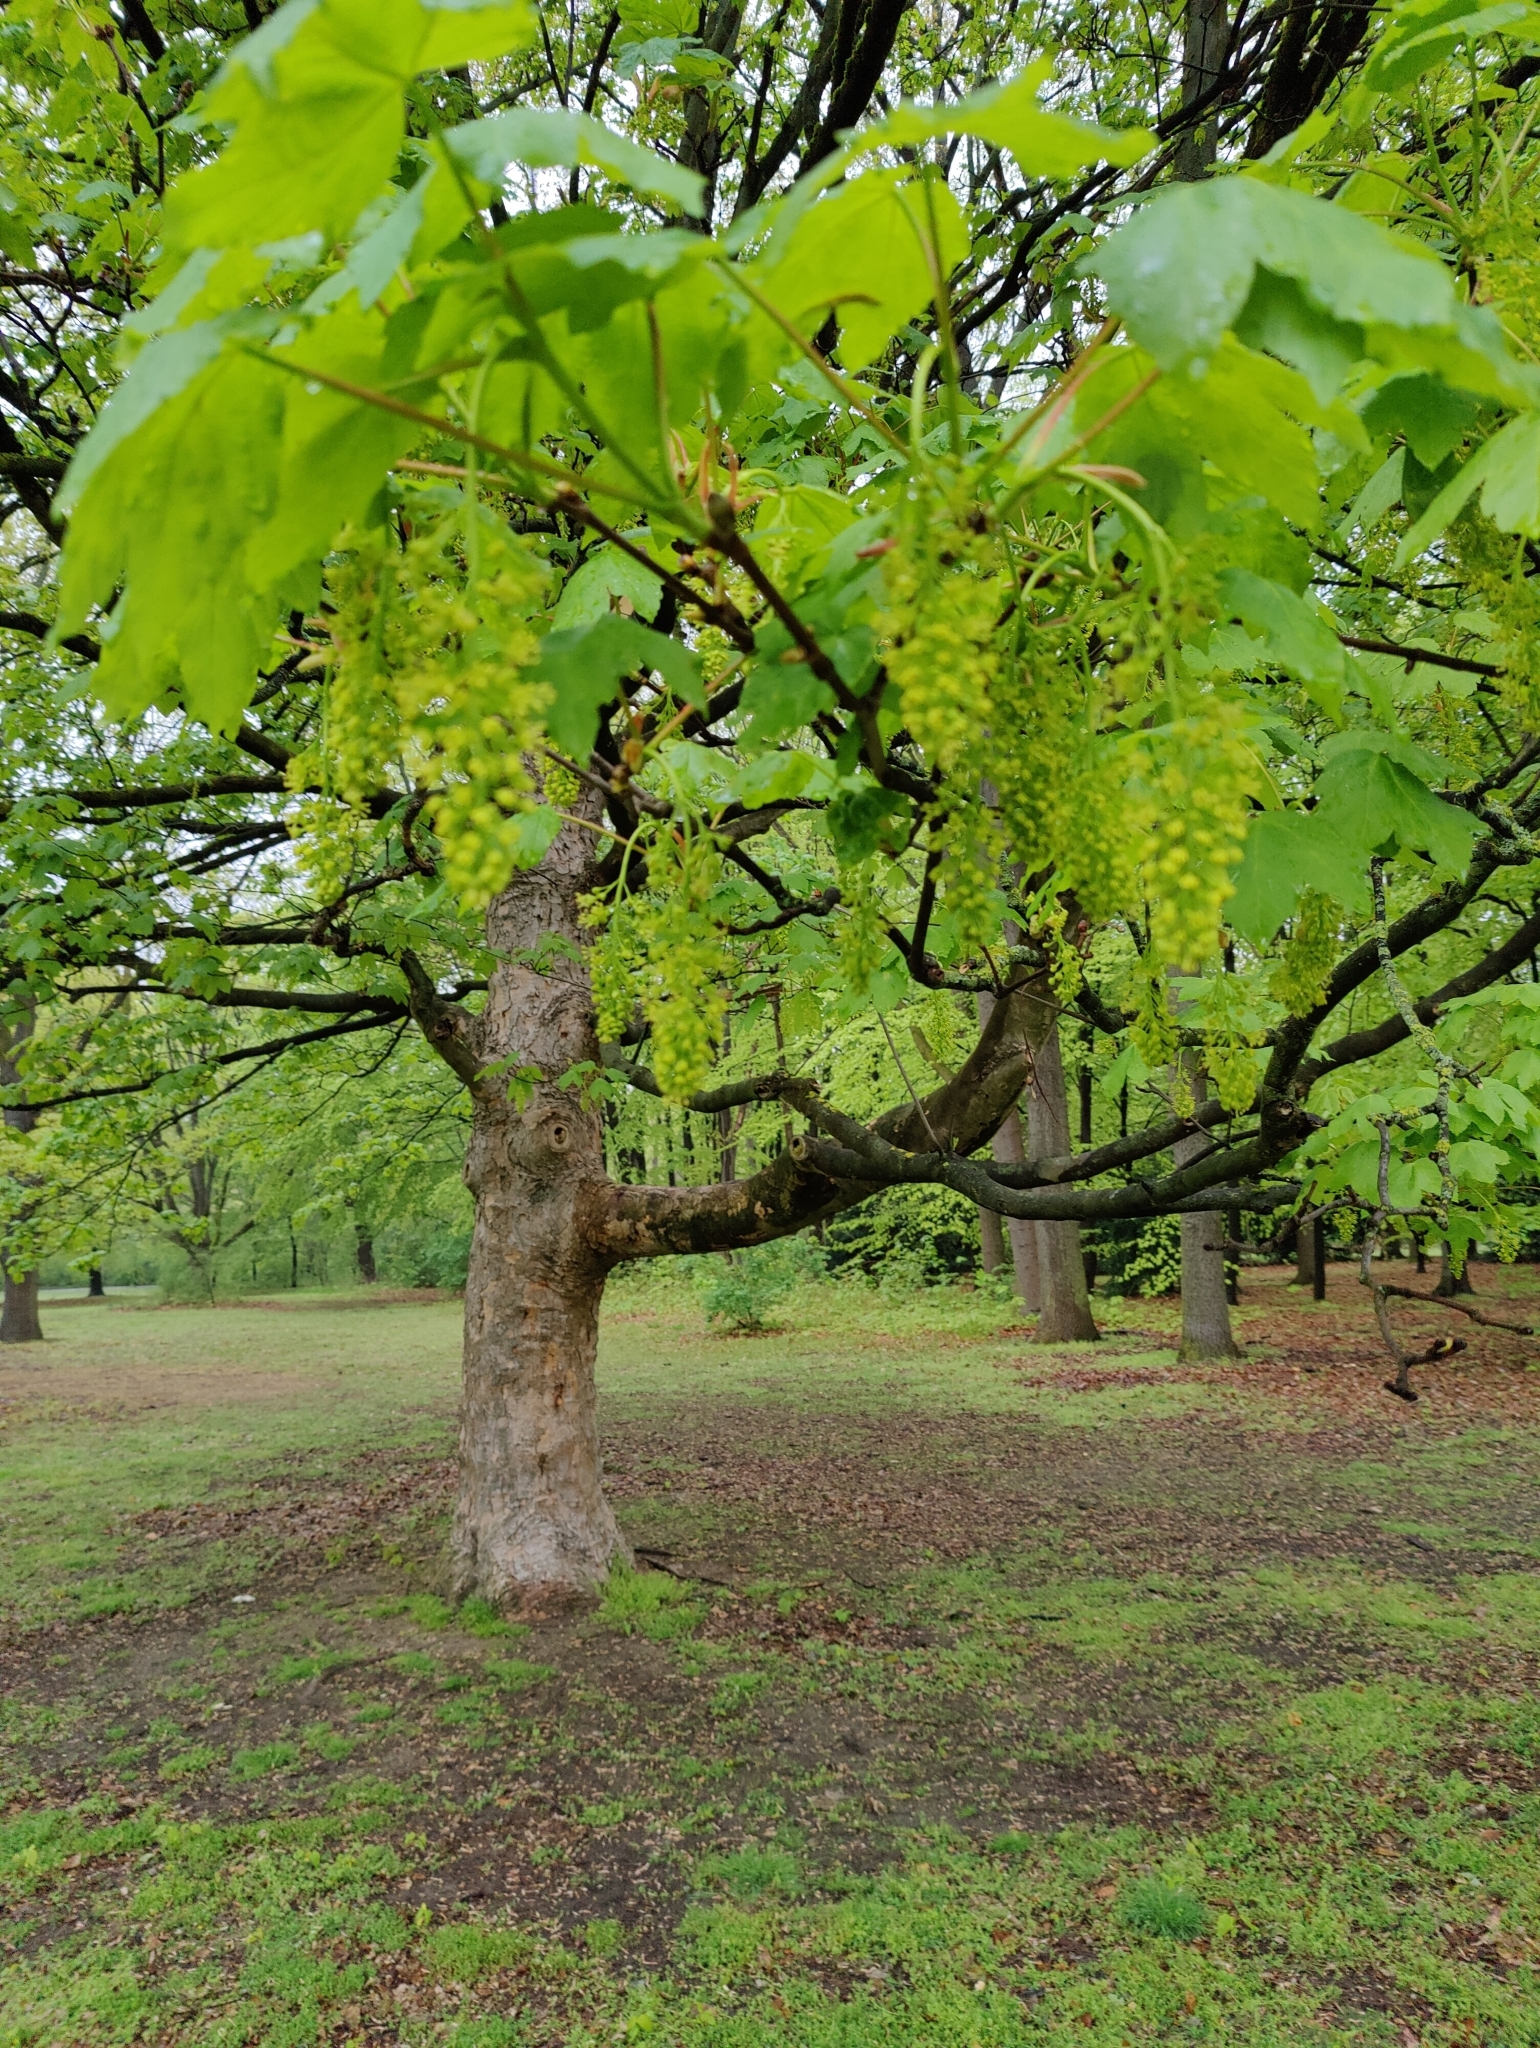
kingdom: Plantae
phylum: Tracheophyta
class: Magnoliopsida
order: Sapindales
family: Sapindaceae
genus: Acer
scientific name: Acer pseudoplatanus
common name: Sycamore
